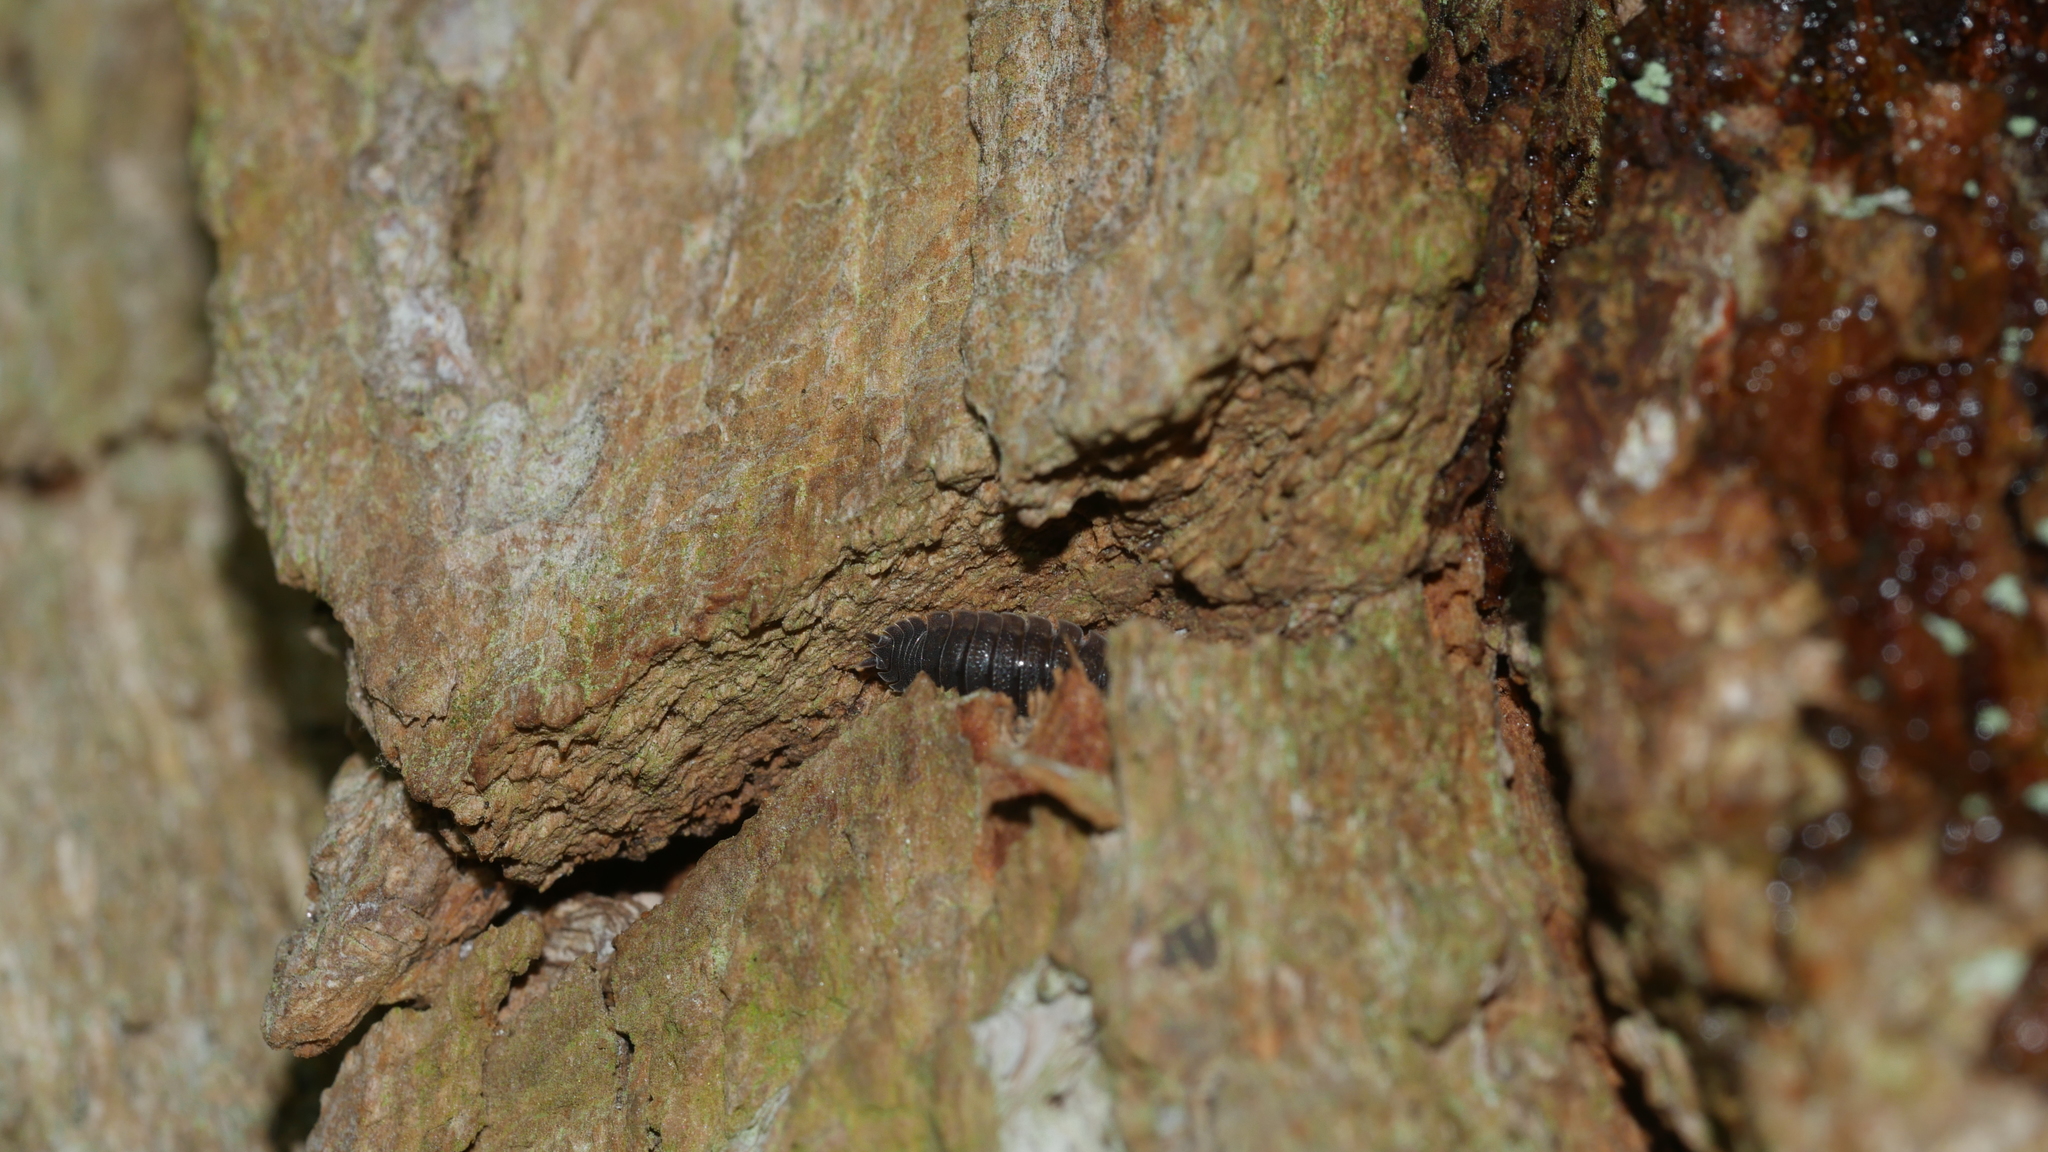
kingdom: Animalia
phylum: Arthropoda
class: Malacostraca
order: Isopoda
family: Porcellionidae
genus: Porcellio
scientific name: Porcellio scaber
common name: Common rough woodlouse
